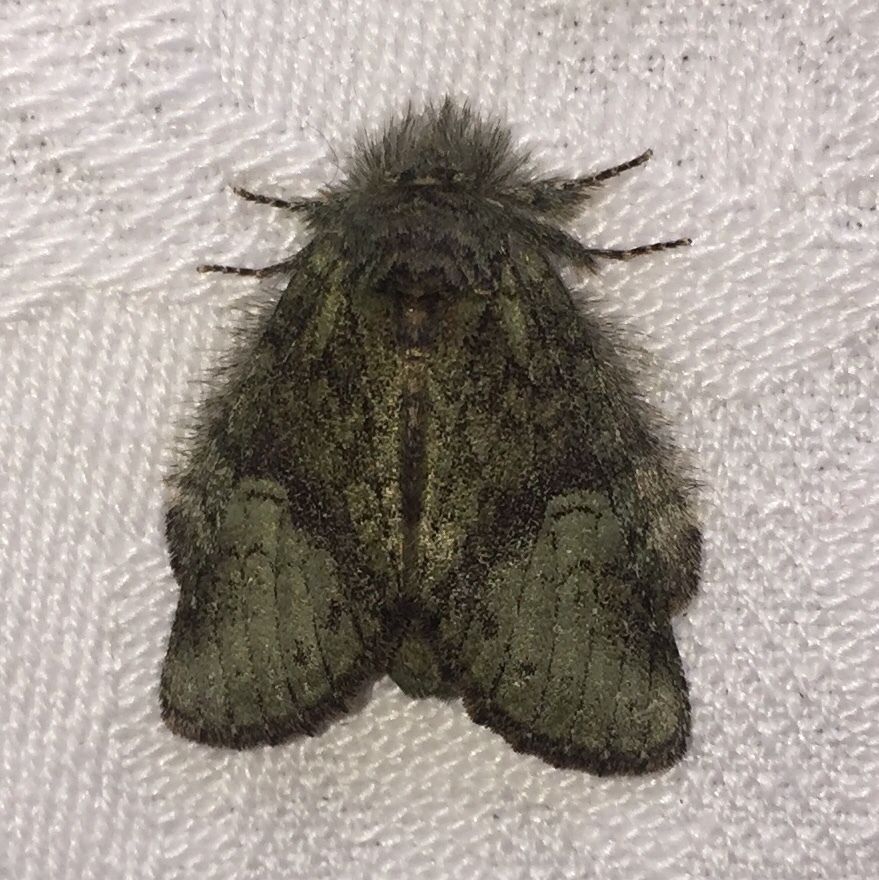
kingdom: Animalia
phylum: Arthropoda
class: Insecta
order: Lepidoptera
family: Notodontidae
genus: Disphragis
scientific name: Disphragis Cecrita guttivitta
